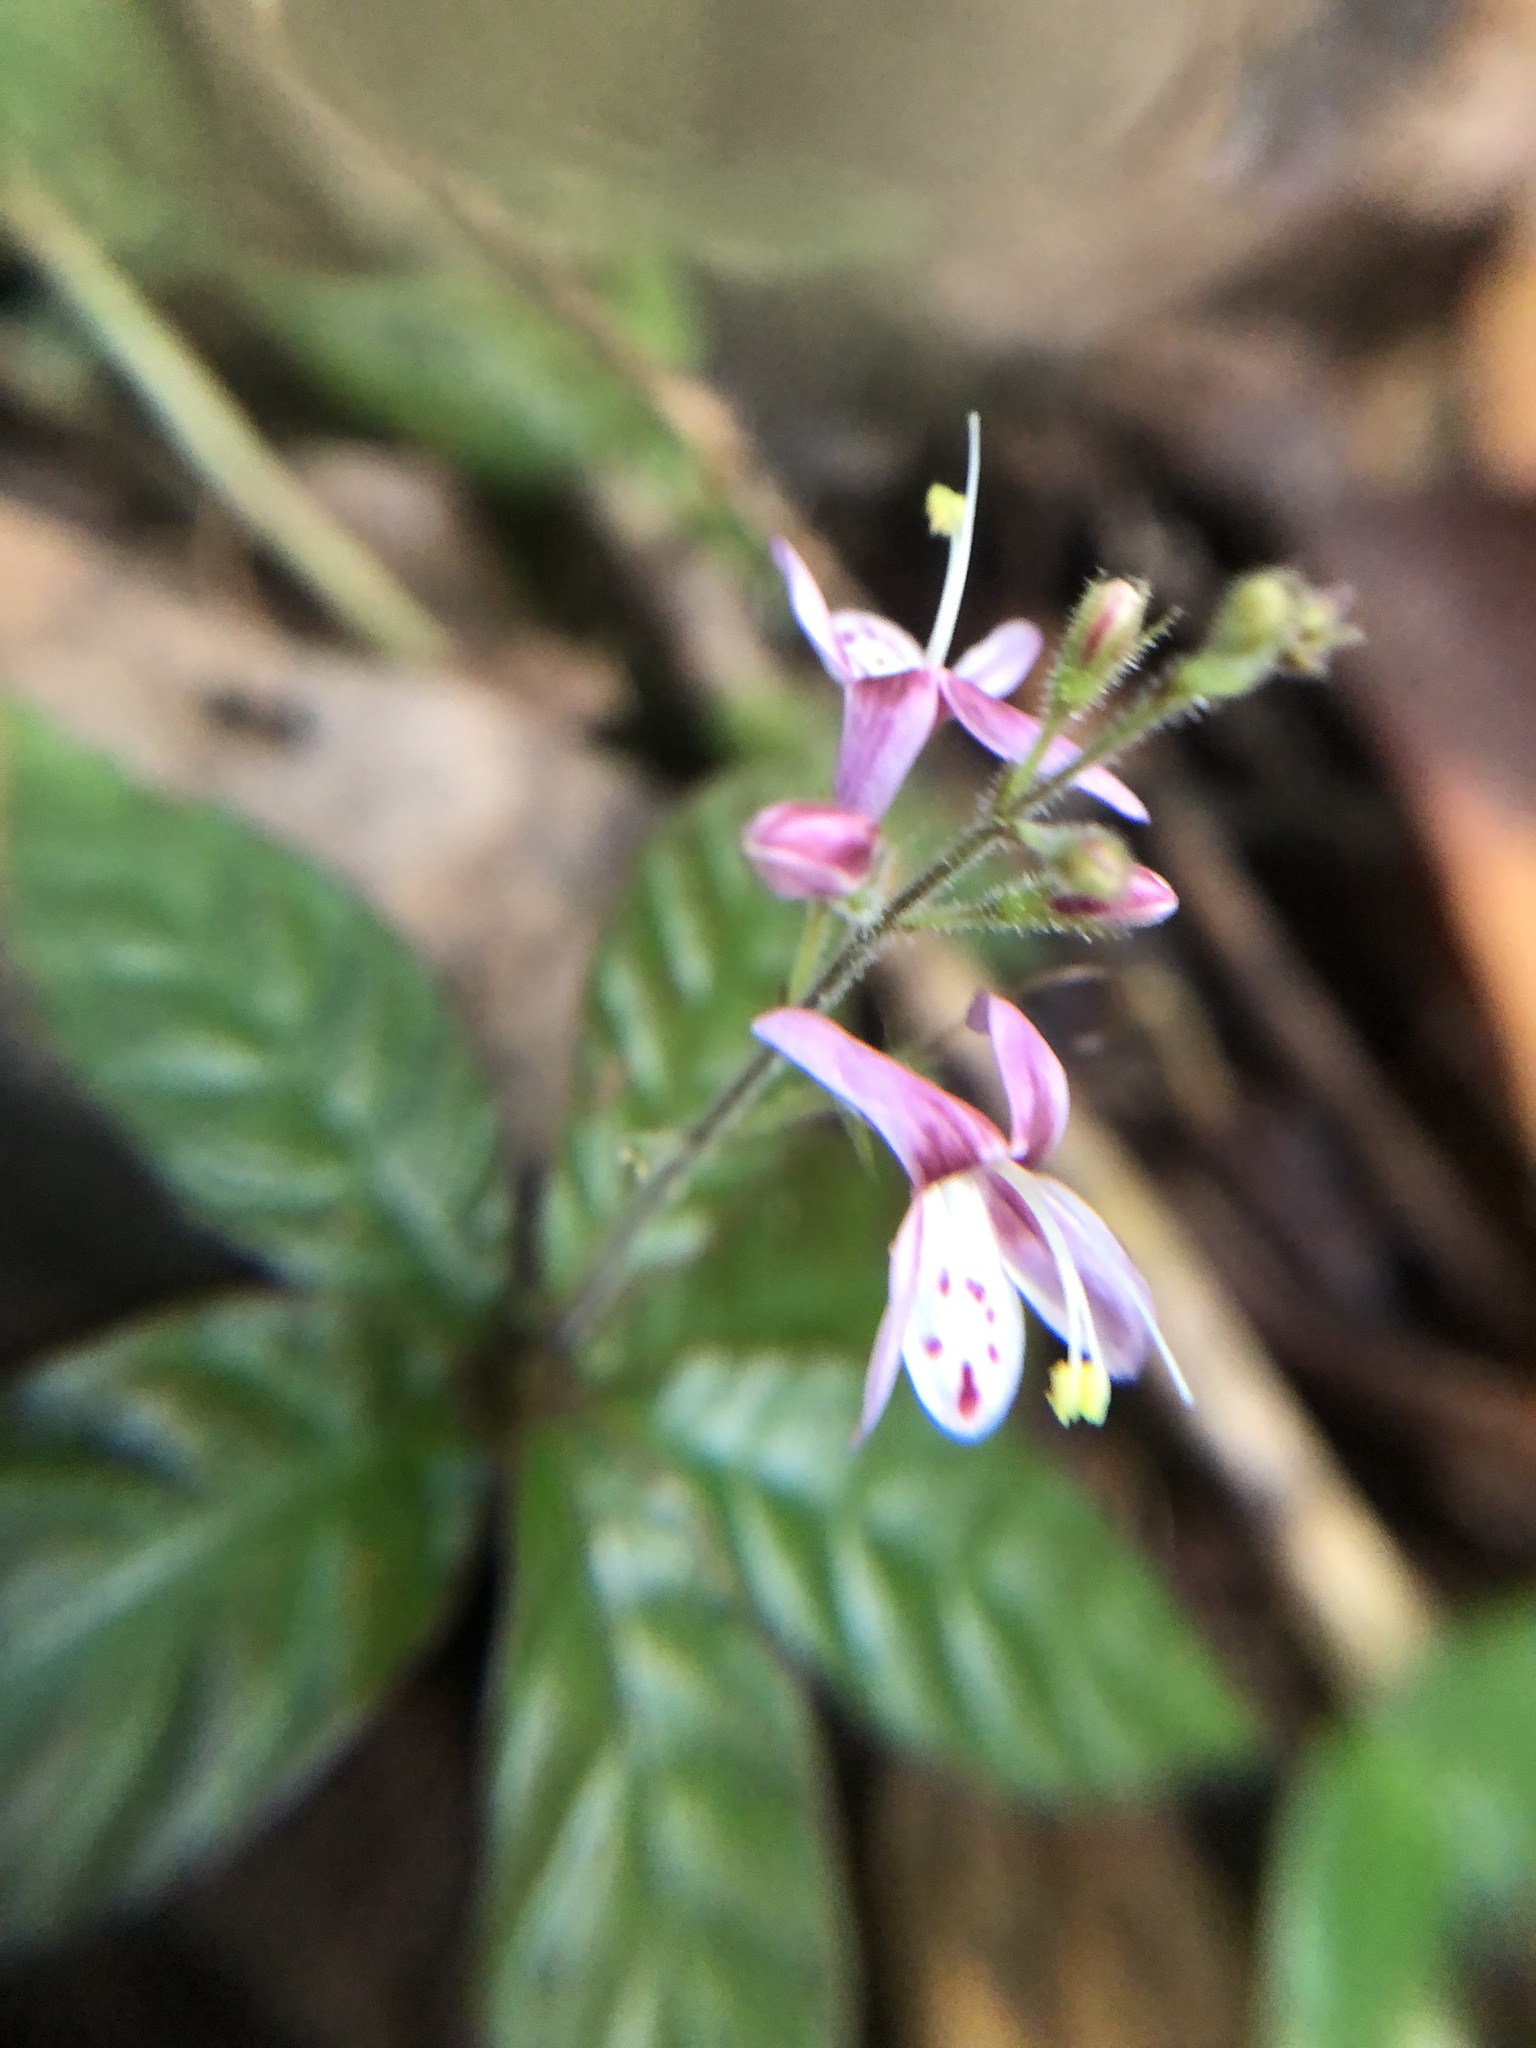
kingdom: Plantae
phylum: Tracheophyta
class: Magnoliopsida
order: Lamiales
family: Acanthaceae
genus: Pulchranthus
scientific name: Pulchranthus congestus
